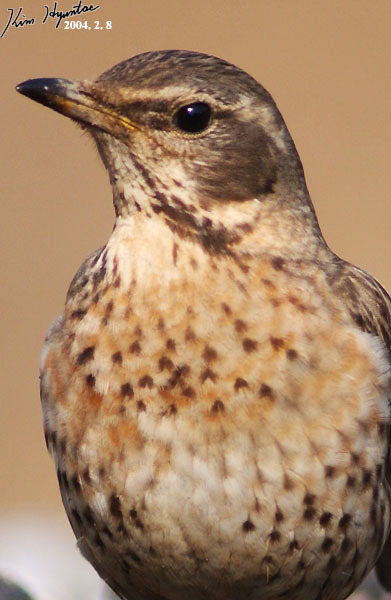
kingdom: Animalia
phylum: Chordata
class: Aves
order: Passeriformes
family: Turdidae
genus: Turdus
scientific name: Turdus naumanni
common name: Naumann's thrush
